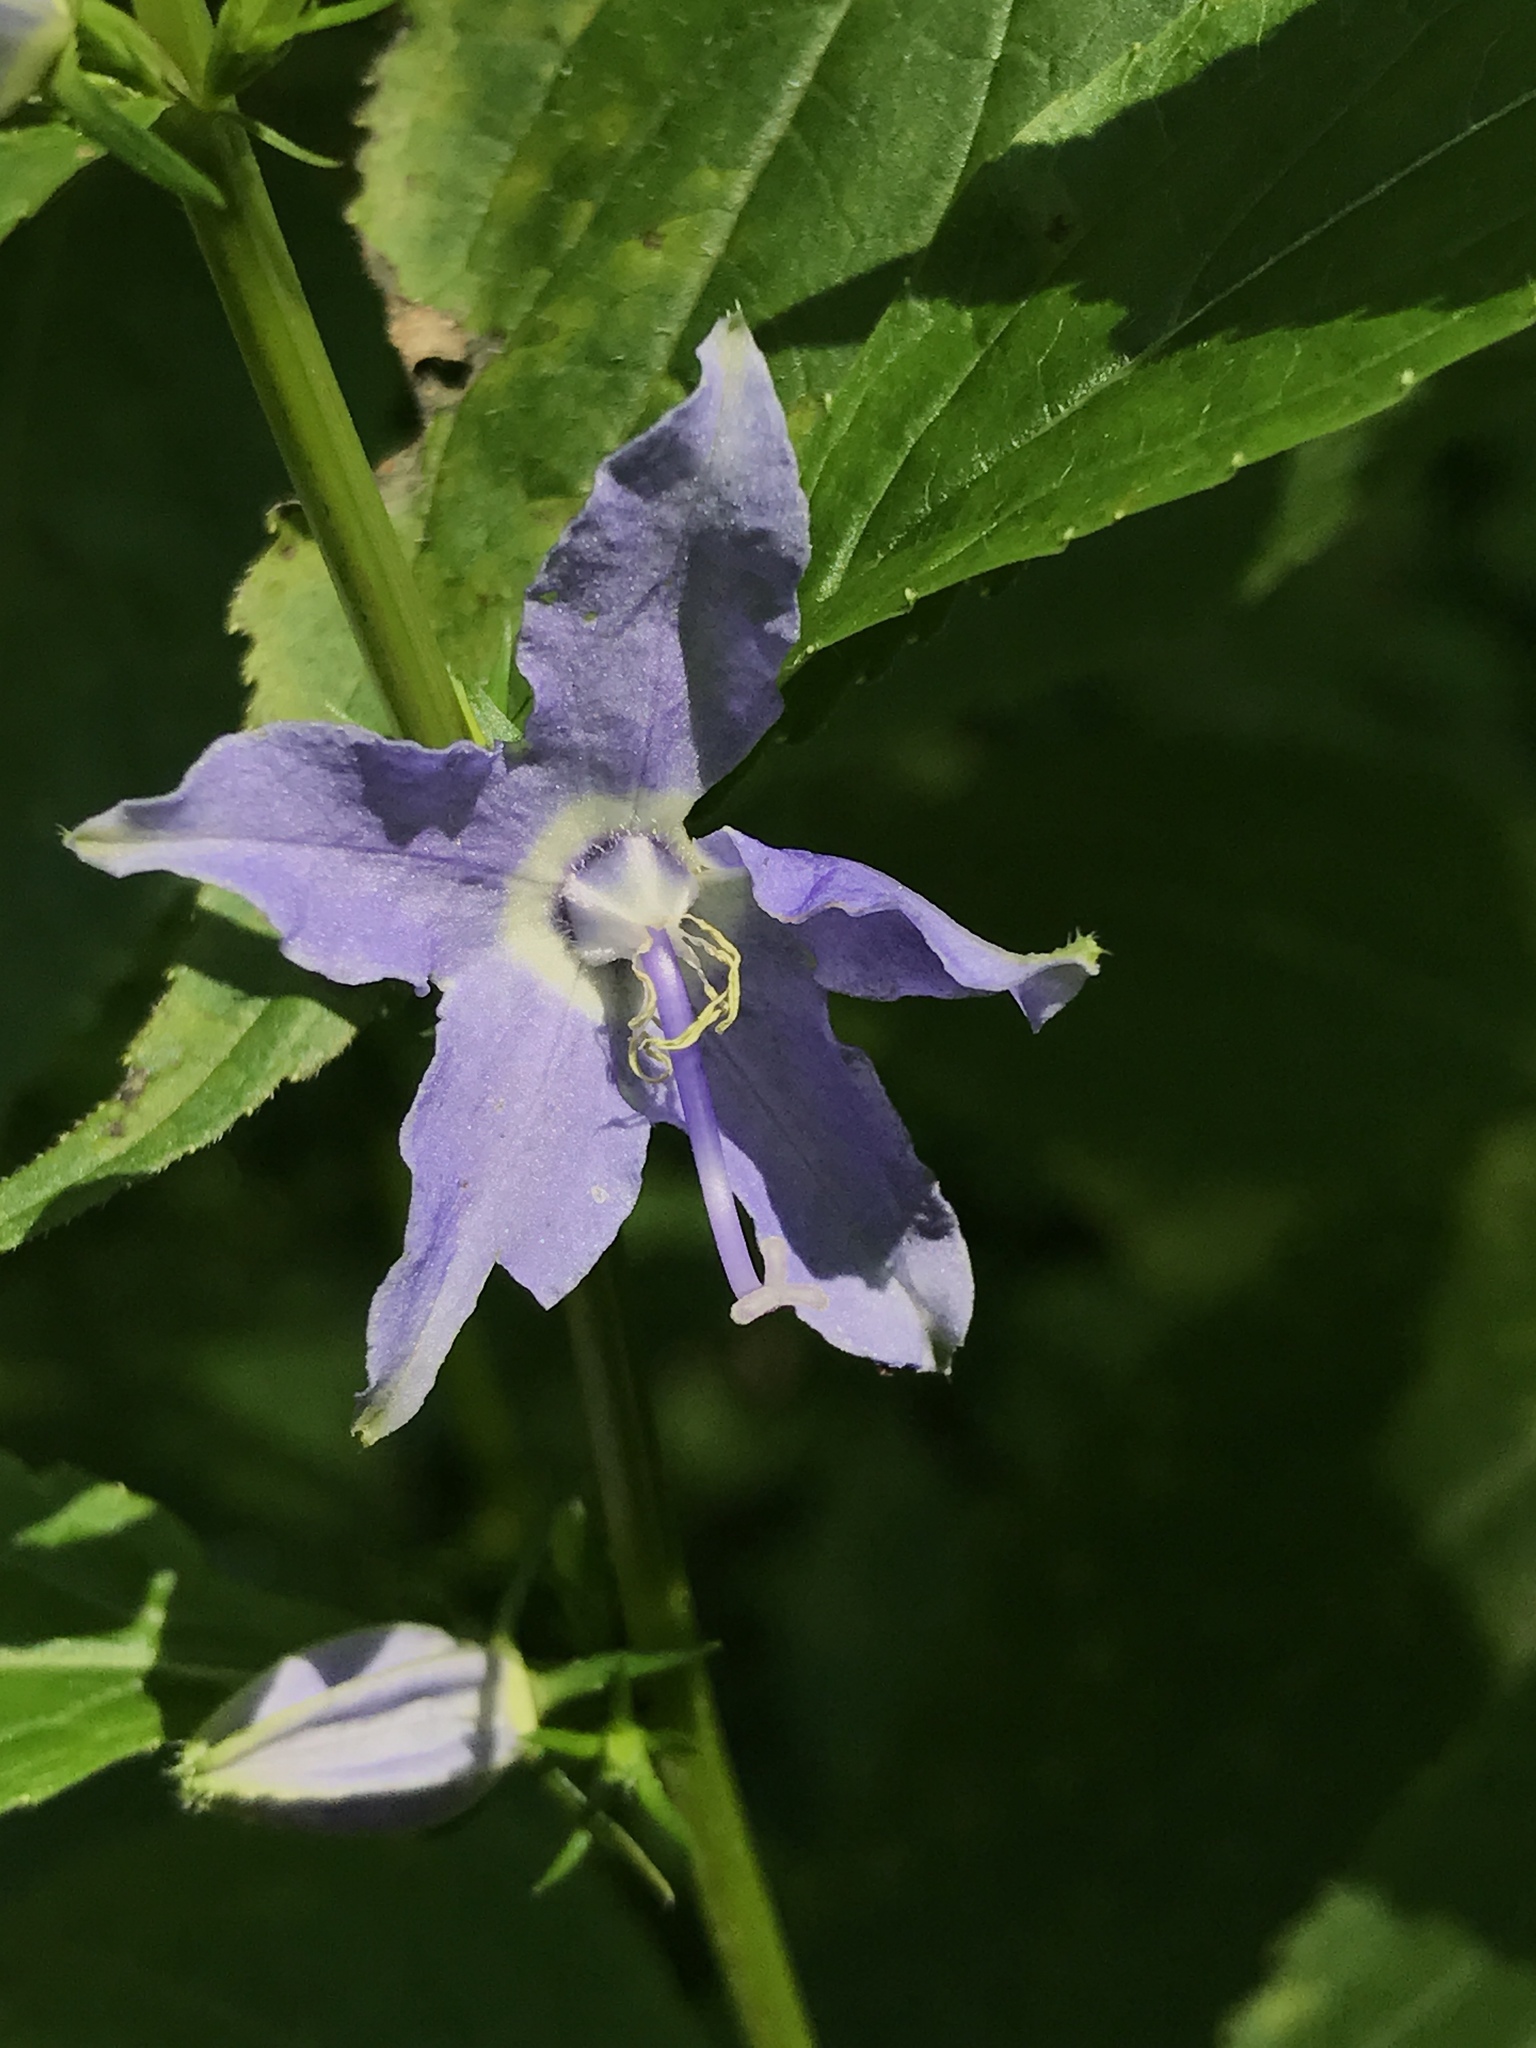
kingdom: Plantae
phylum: Tracheophyta
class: Magnoliopsida
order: Asterales
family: Campanulaceae
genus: Campanulastrum
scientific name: Campanulastrum americanum
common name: American bellflower
